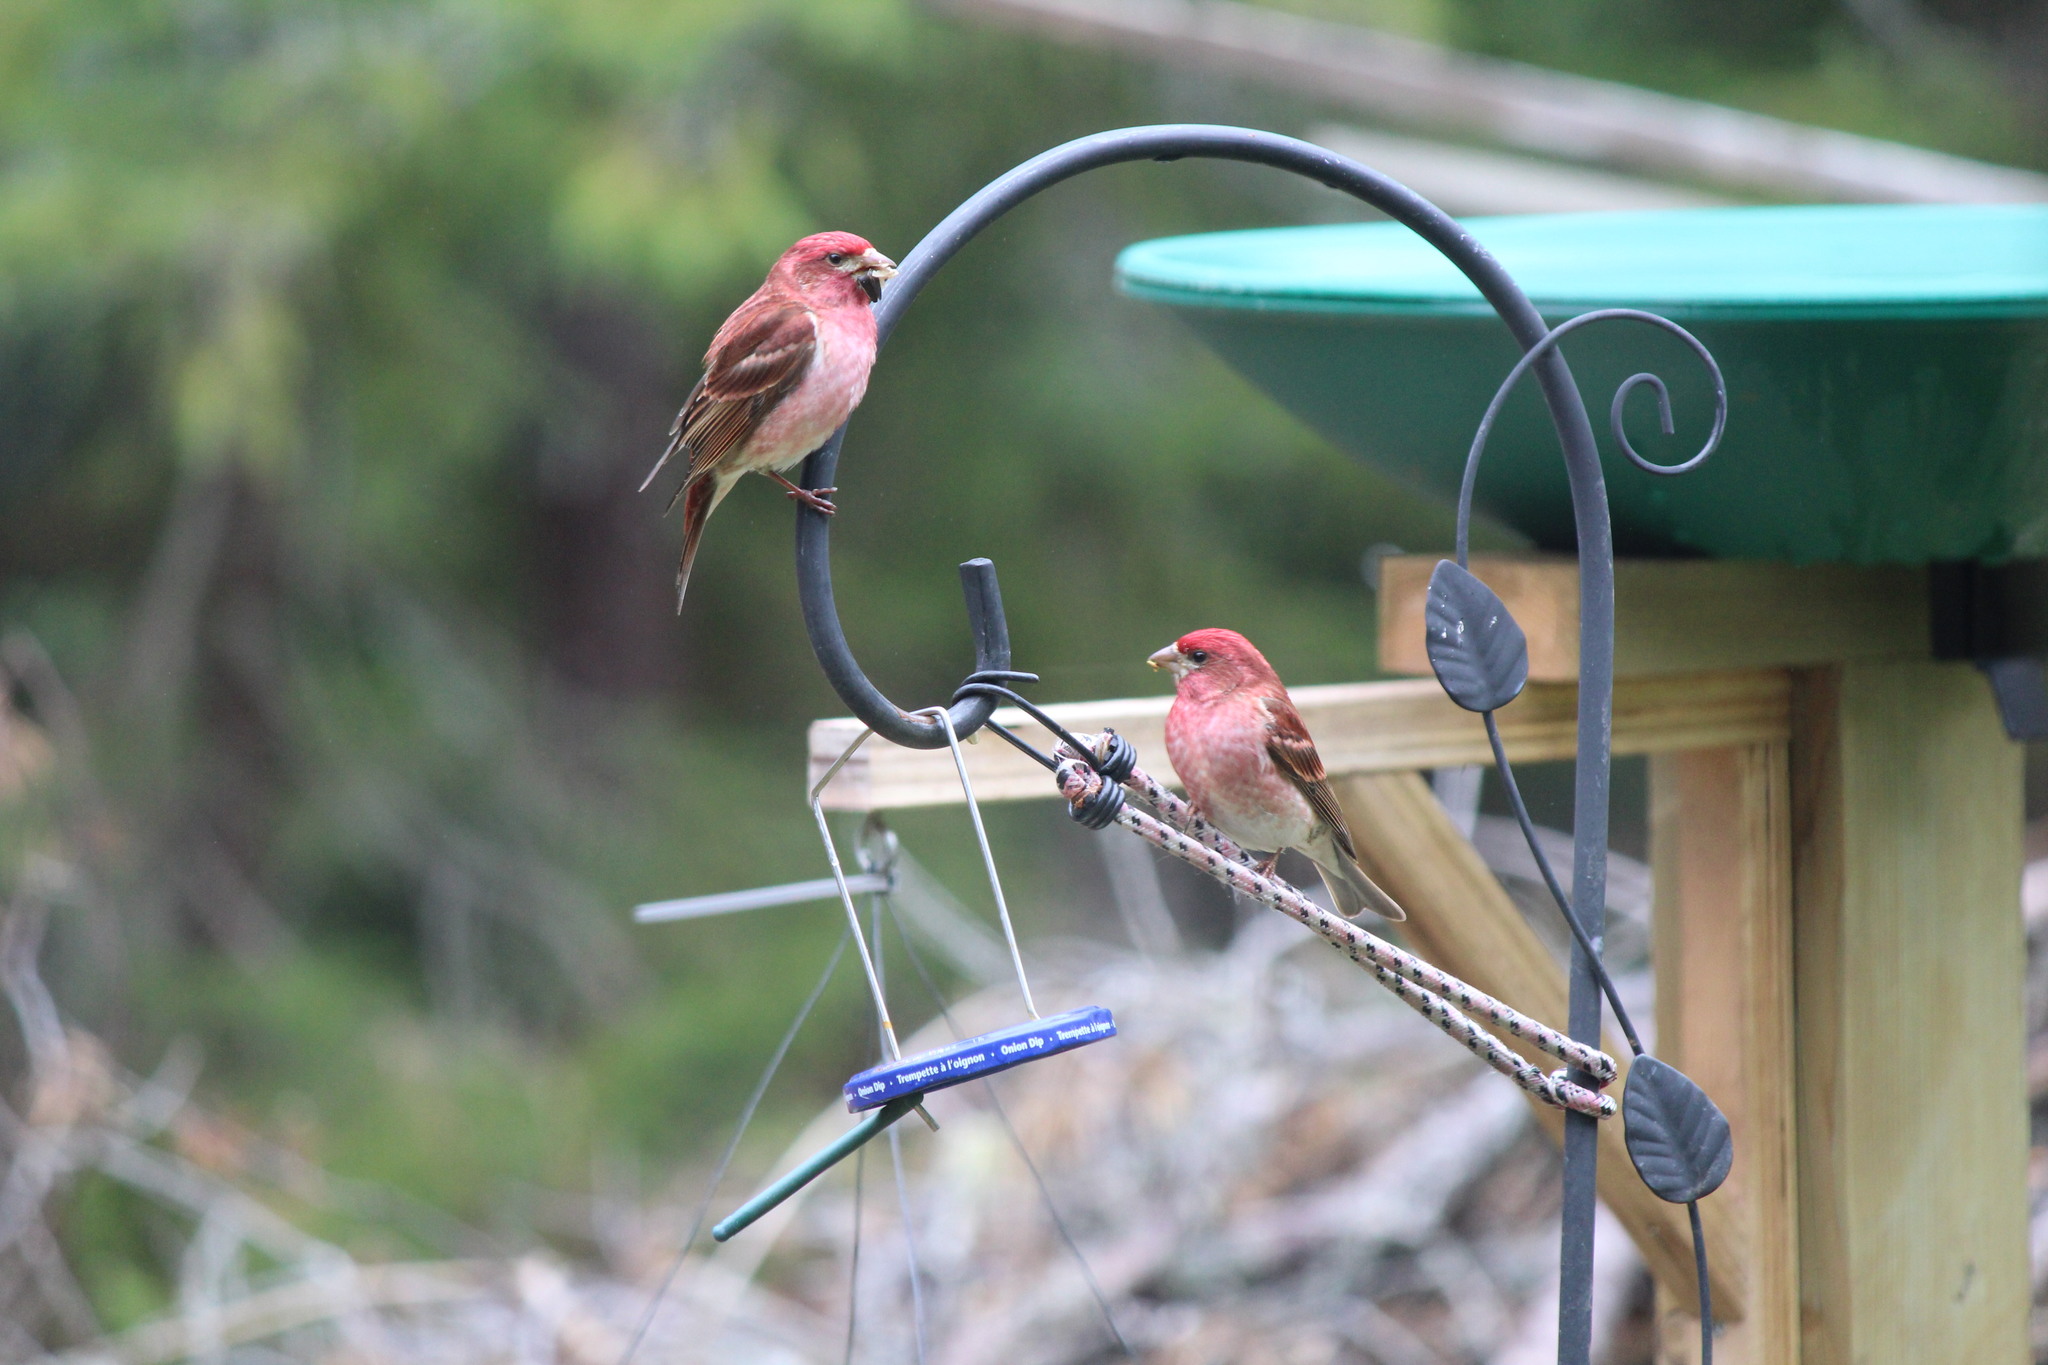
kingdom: Animalia
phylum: Chordata
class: Aves
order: Passeriformes
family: Fringillidae
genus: Haemorhous
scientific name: Haemorhous purpureus
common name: Purple finch
